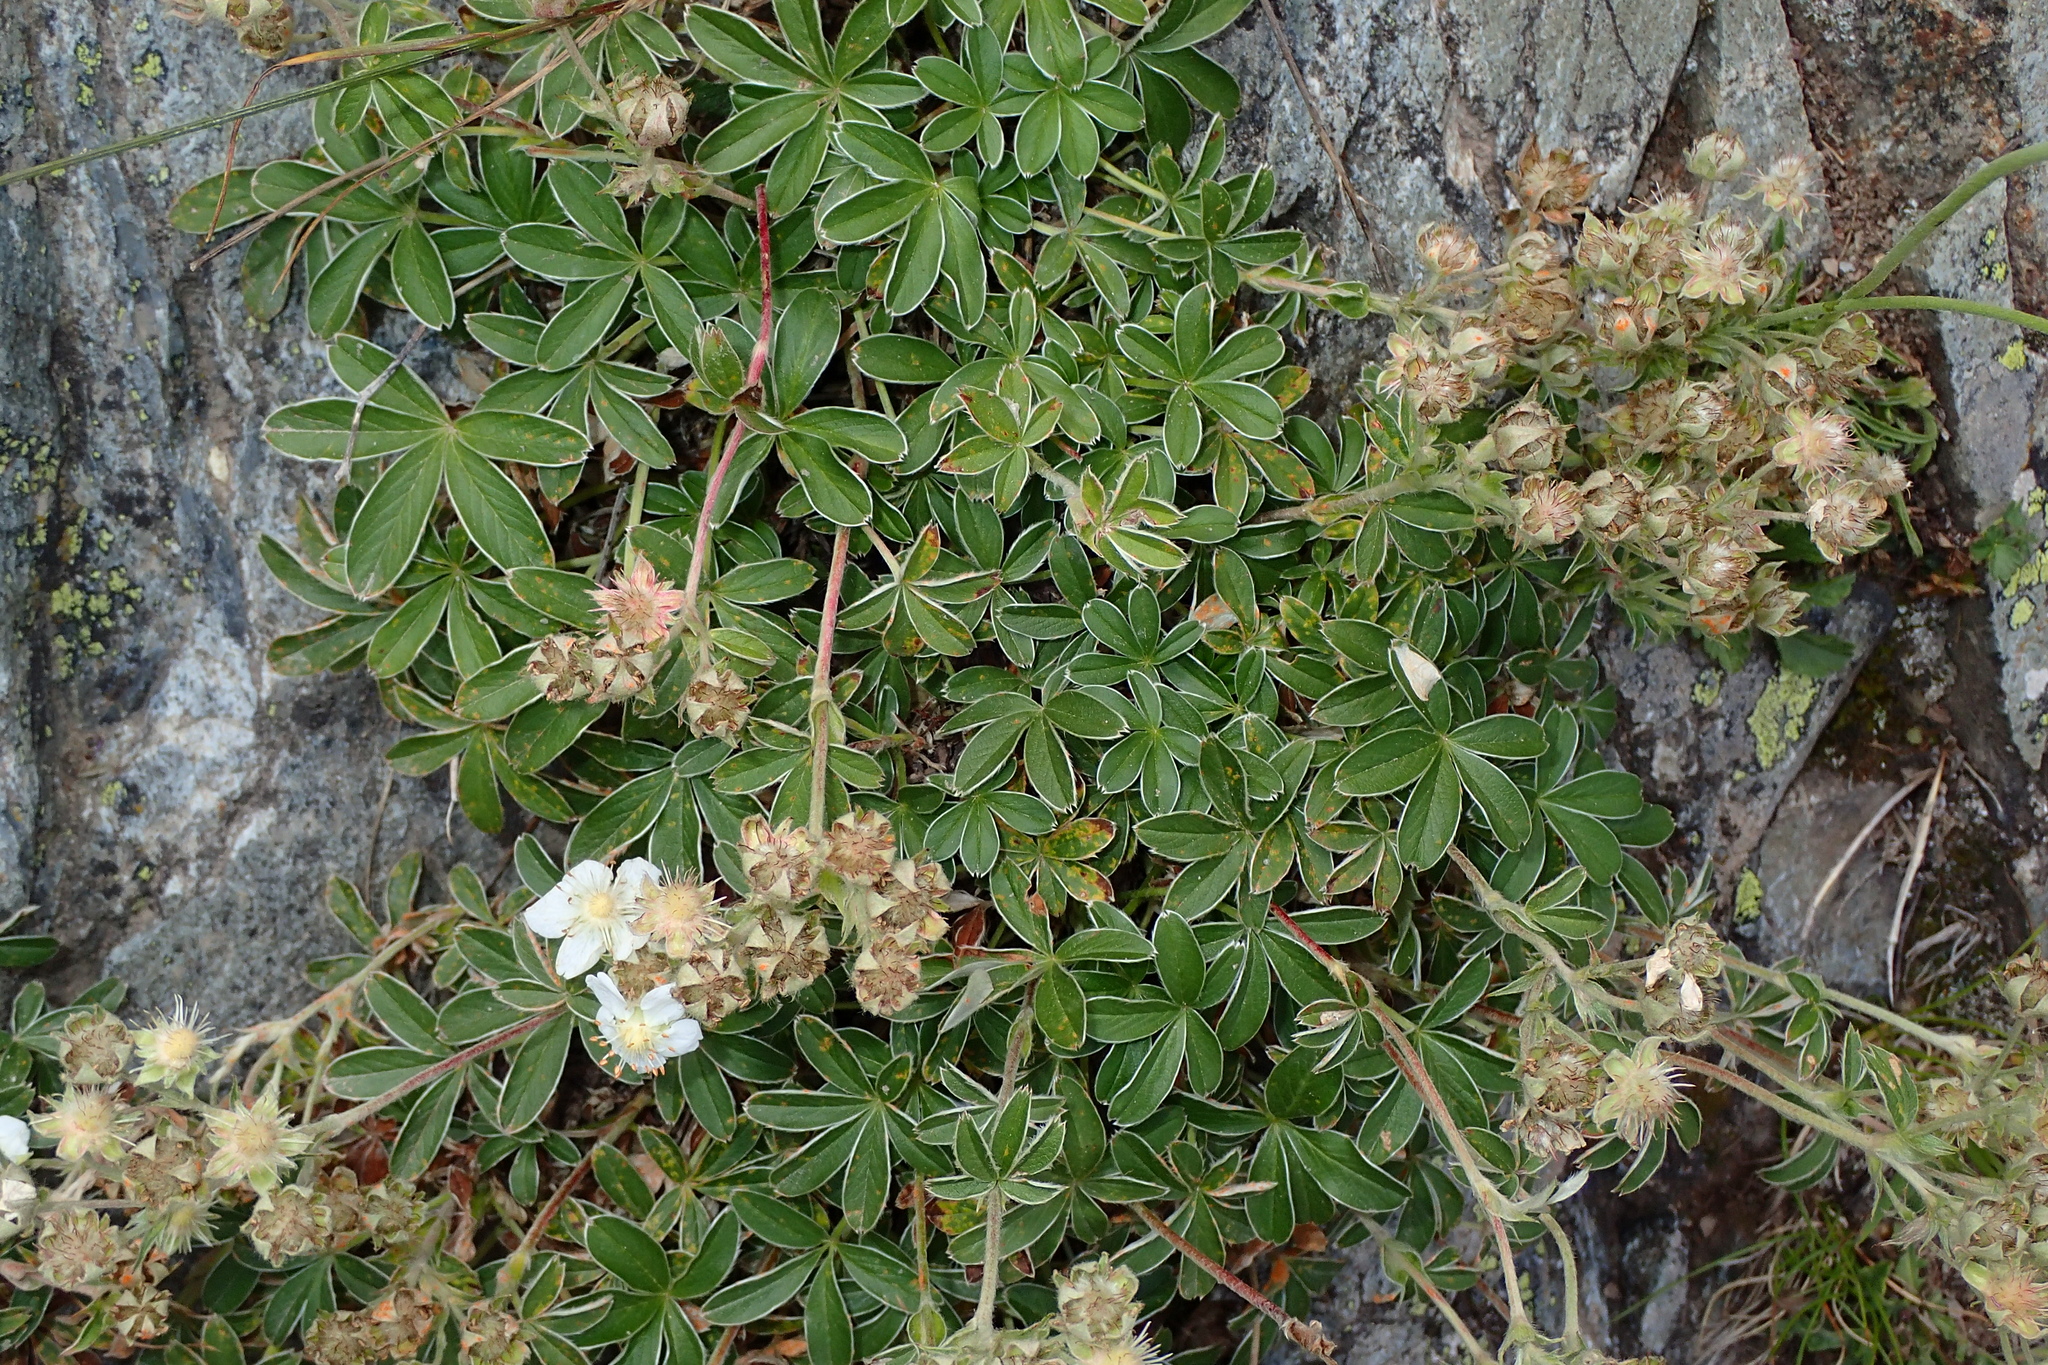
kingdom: Plantae
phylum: Tracheophyta
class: Magnoliopsida
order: Rosales
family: Rosaceae
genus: Potentilla
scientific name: Potentilla alchimilloides
